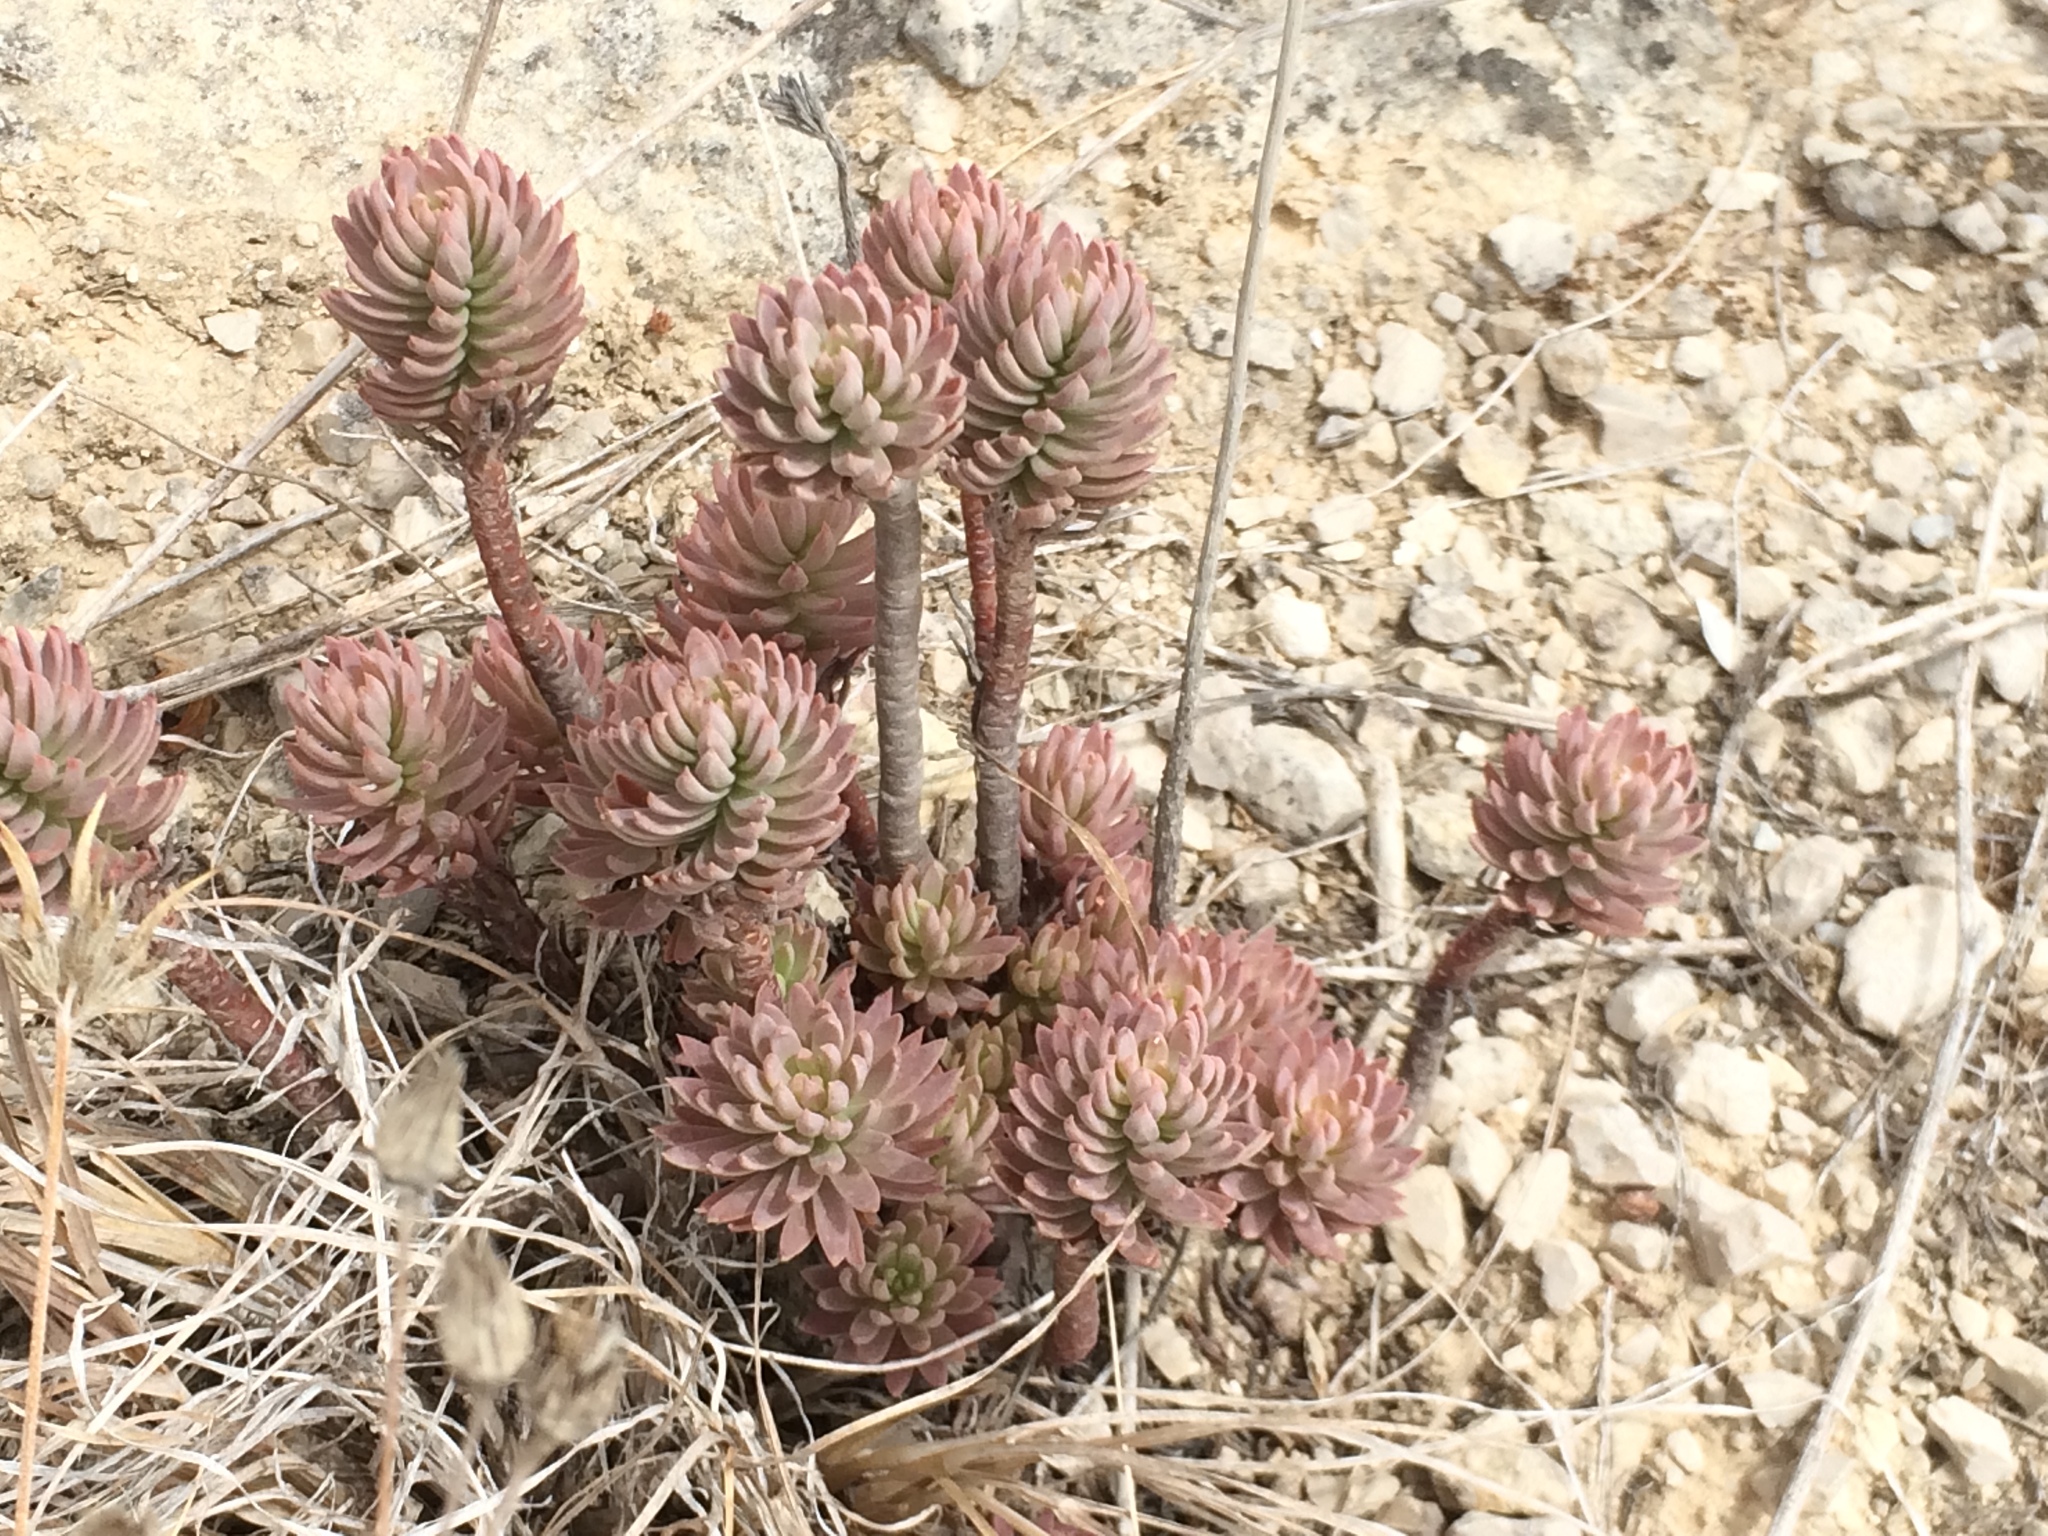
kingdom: Plantae
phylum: Tracheophyta
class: Magnoliopsida
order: Saxifragales
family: Crassulaceae
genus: Petrosedum
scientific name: Petrosedum sediforme
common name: Pale stonecrop
